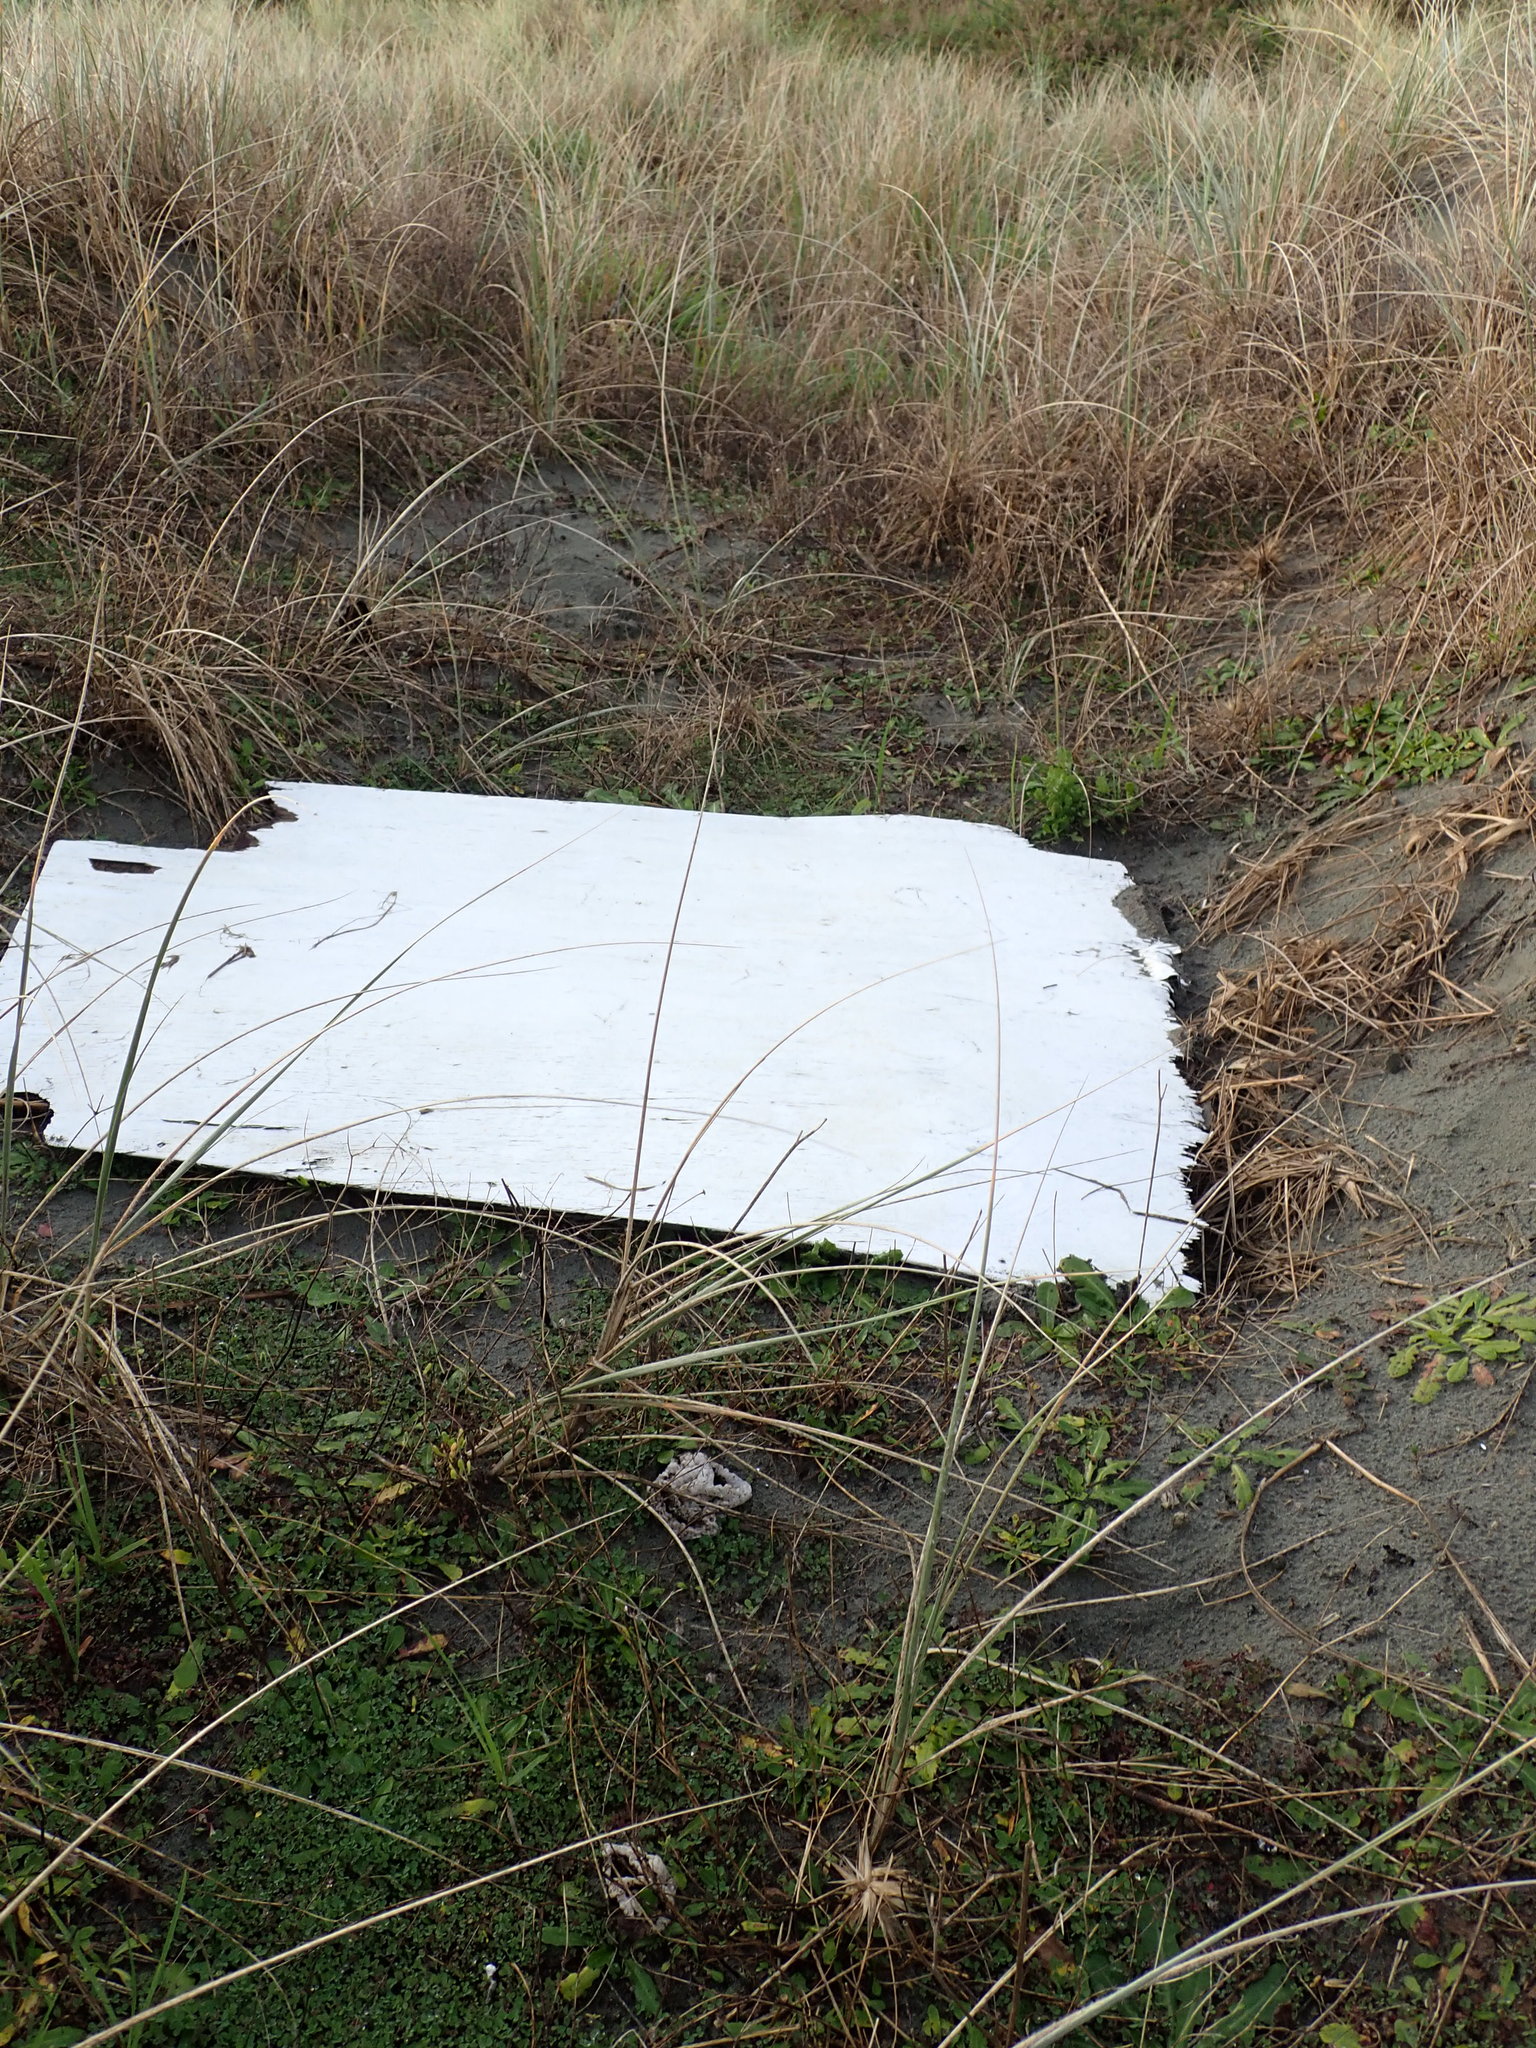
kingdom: Animalia
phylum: Arthropoda
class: Arachnida
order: Araneae
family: Porrhothelidae
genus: Porrhothele
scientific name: Porrhothele antipodiana
